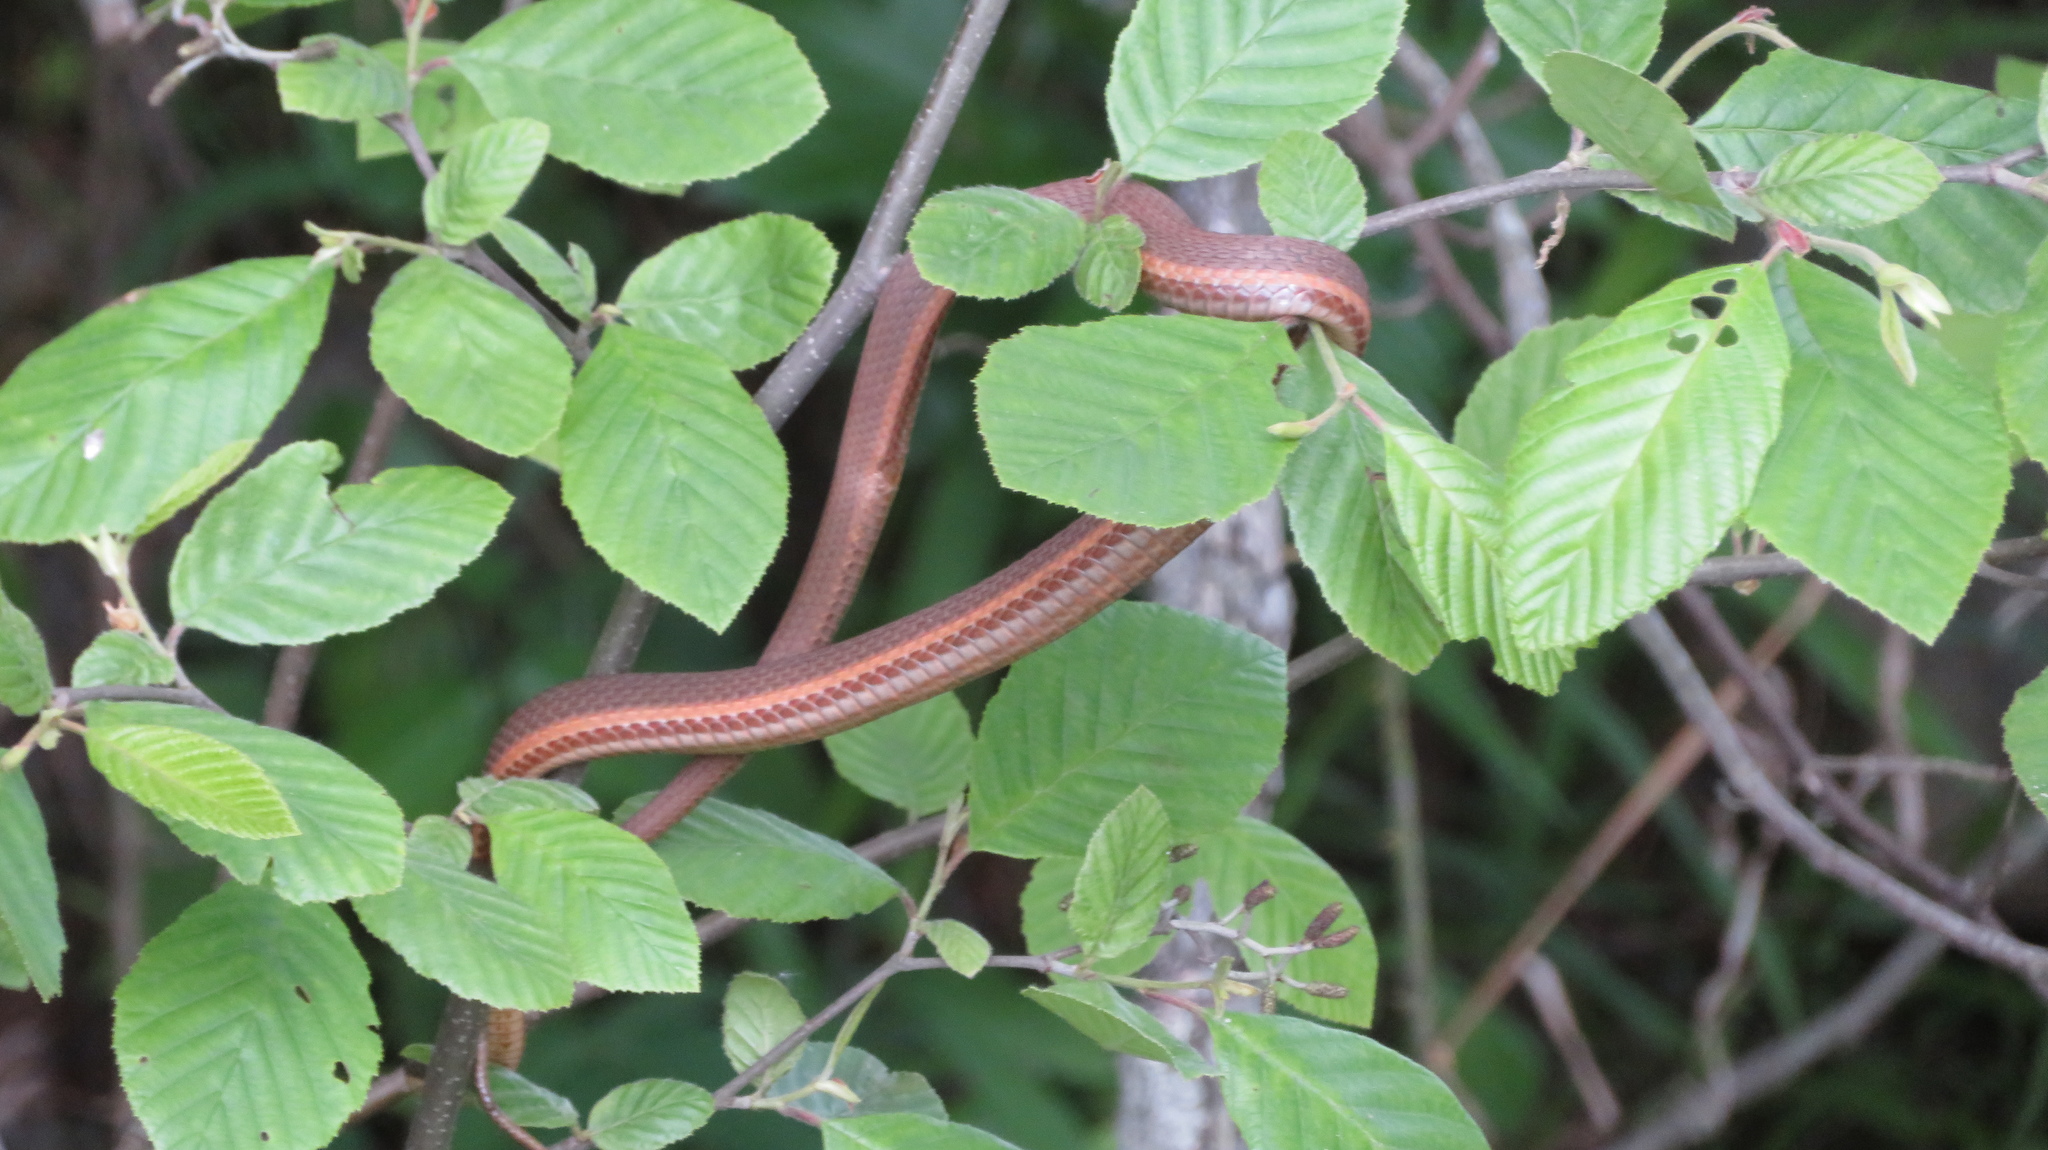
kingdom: Animalia
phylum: Chordata
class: Squamata
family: Colubridae
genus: Regina
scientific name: Regina septemvittata
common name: Queen snake
